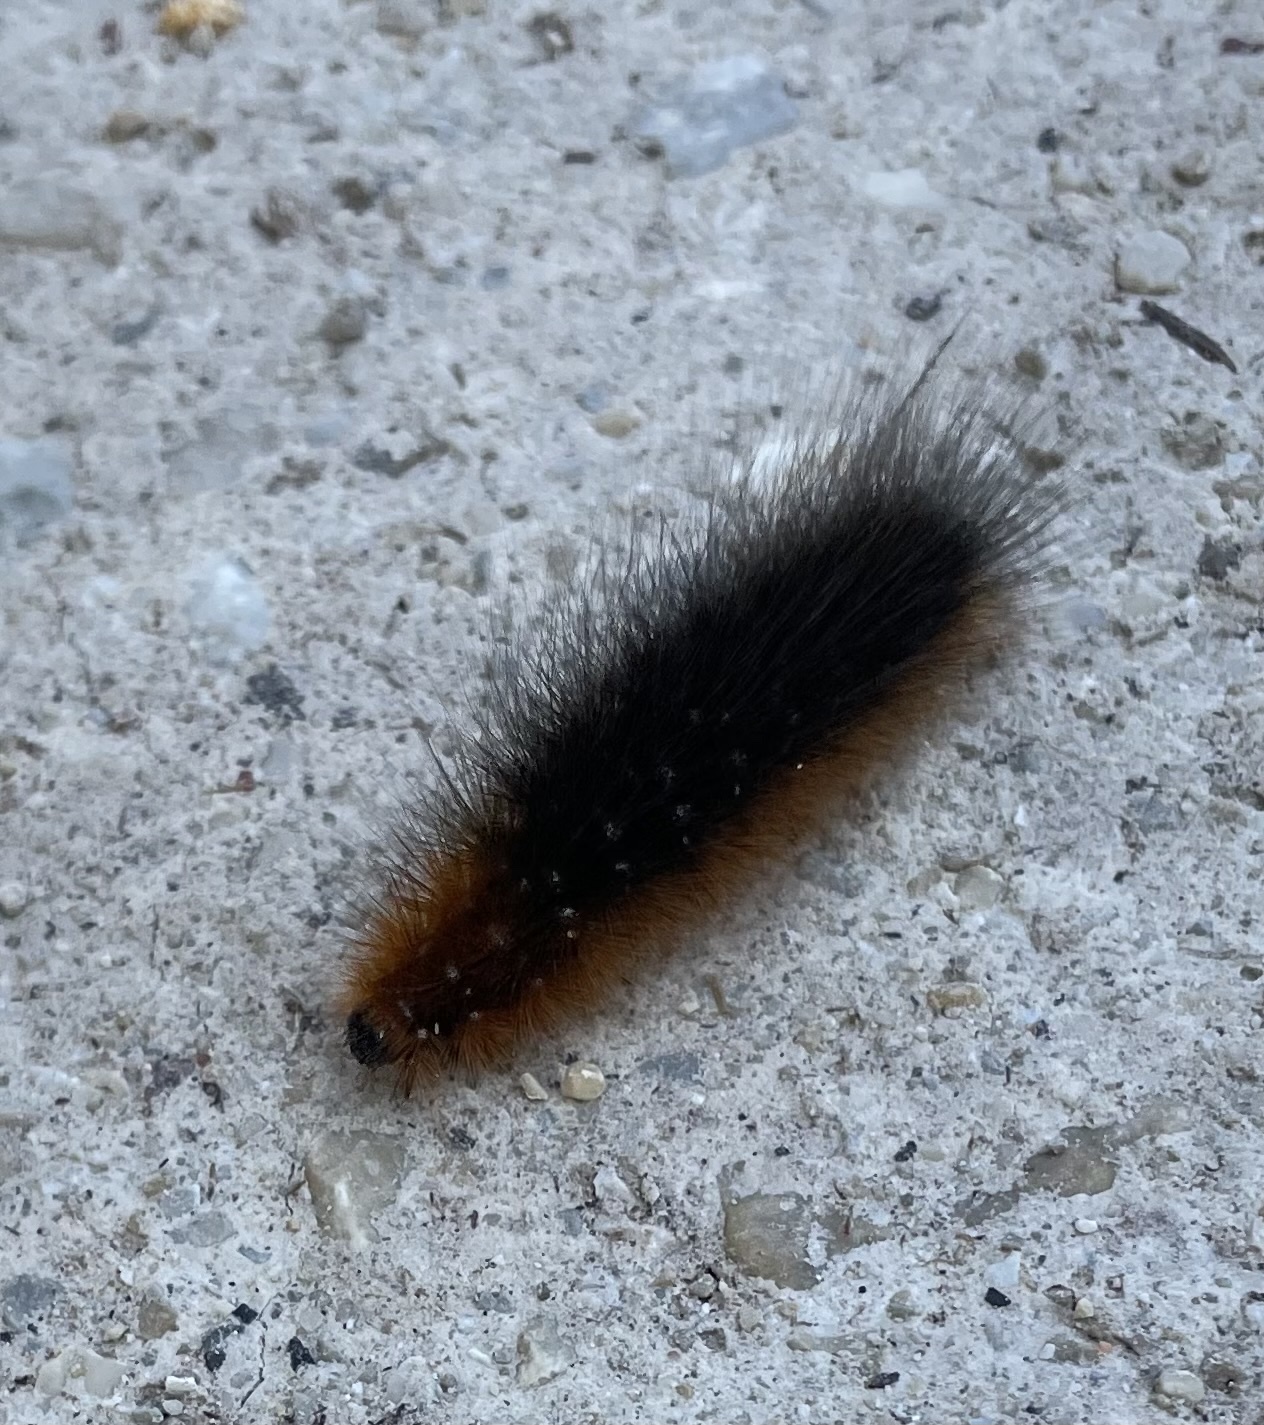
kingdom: Animalia
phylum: Arthropoda
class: Insecta
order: Lepidoptera
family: Erebidae
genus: Arctia
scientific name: Arctia caja
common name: Garden tiger
